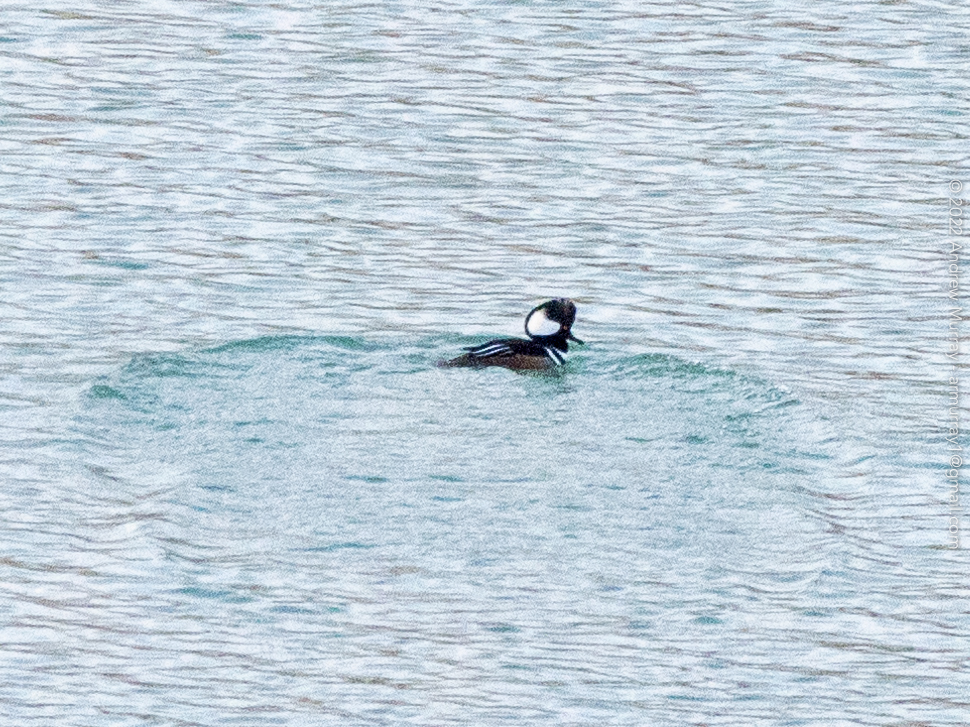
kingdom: Animalia
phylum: Chordata
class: Aves
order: Anseriformes
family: Anatidae
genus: Lophodytes
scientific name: Lophodytes cucullatus
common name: Hooded merganser
